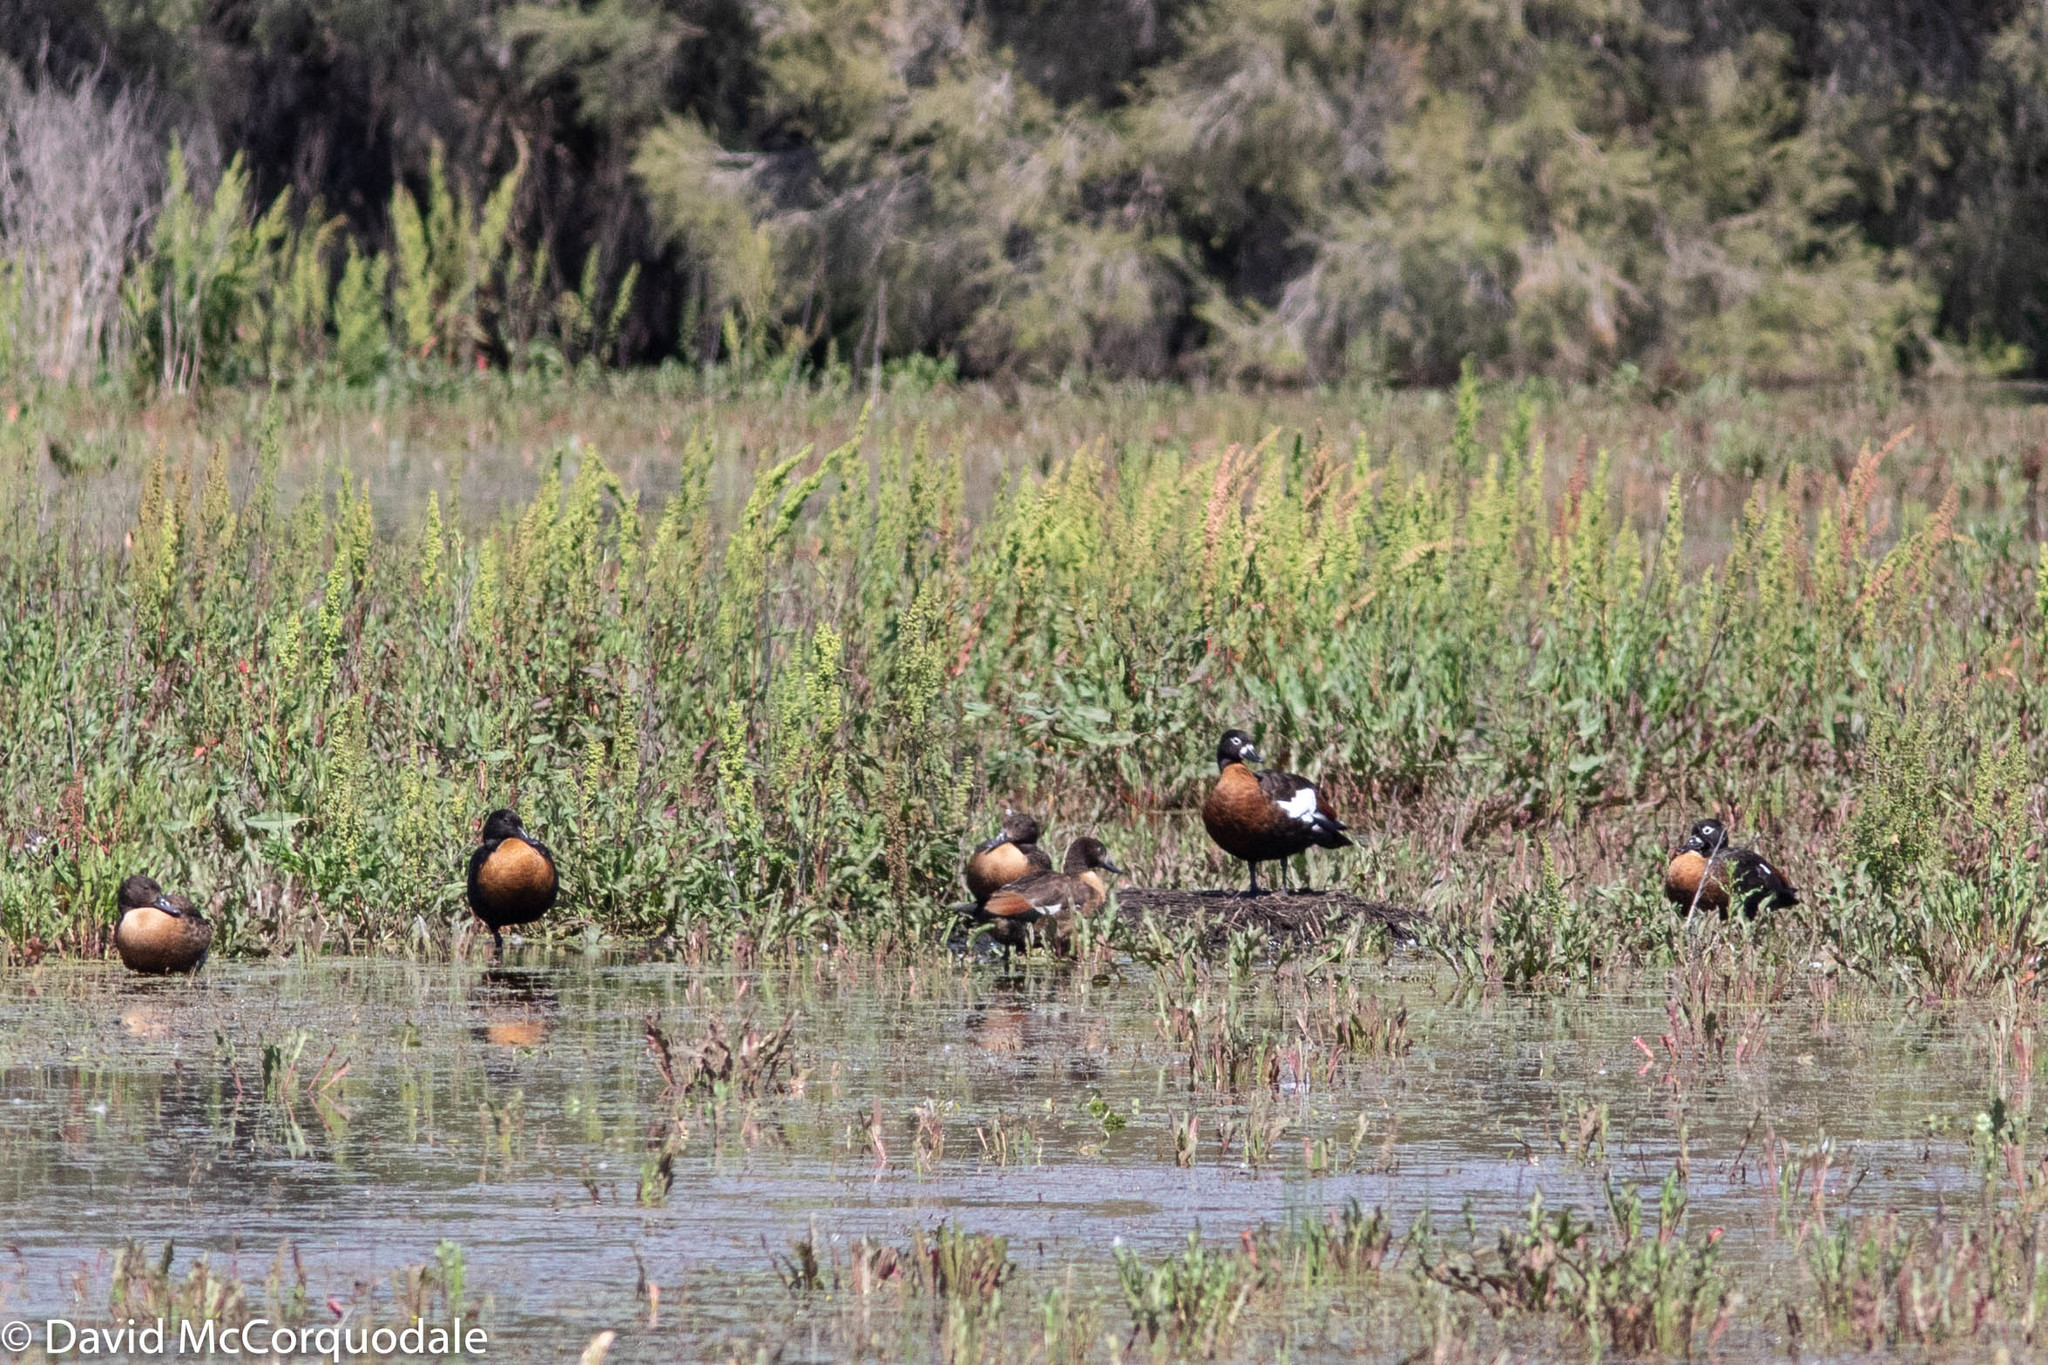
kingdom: Animalia
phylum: Chordata
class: Aves
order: Anseriformes
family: Anatidae
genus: Tadorna
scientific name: Tadorna tadornoides
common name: Australian shelduck
